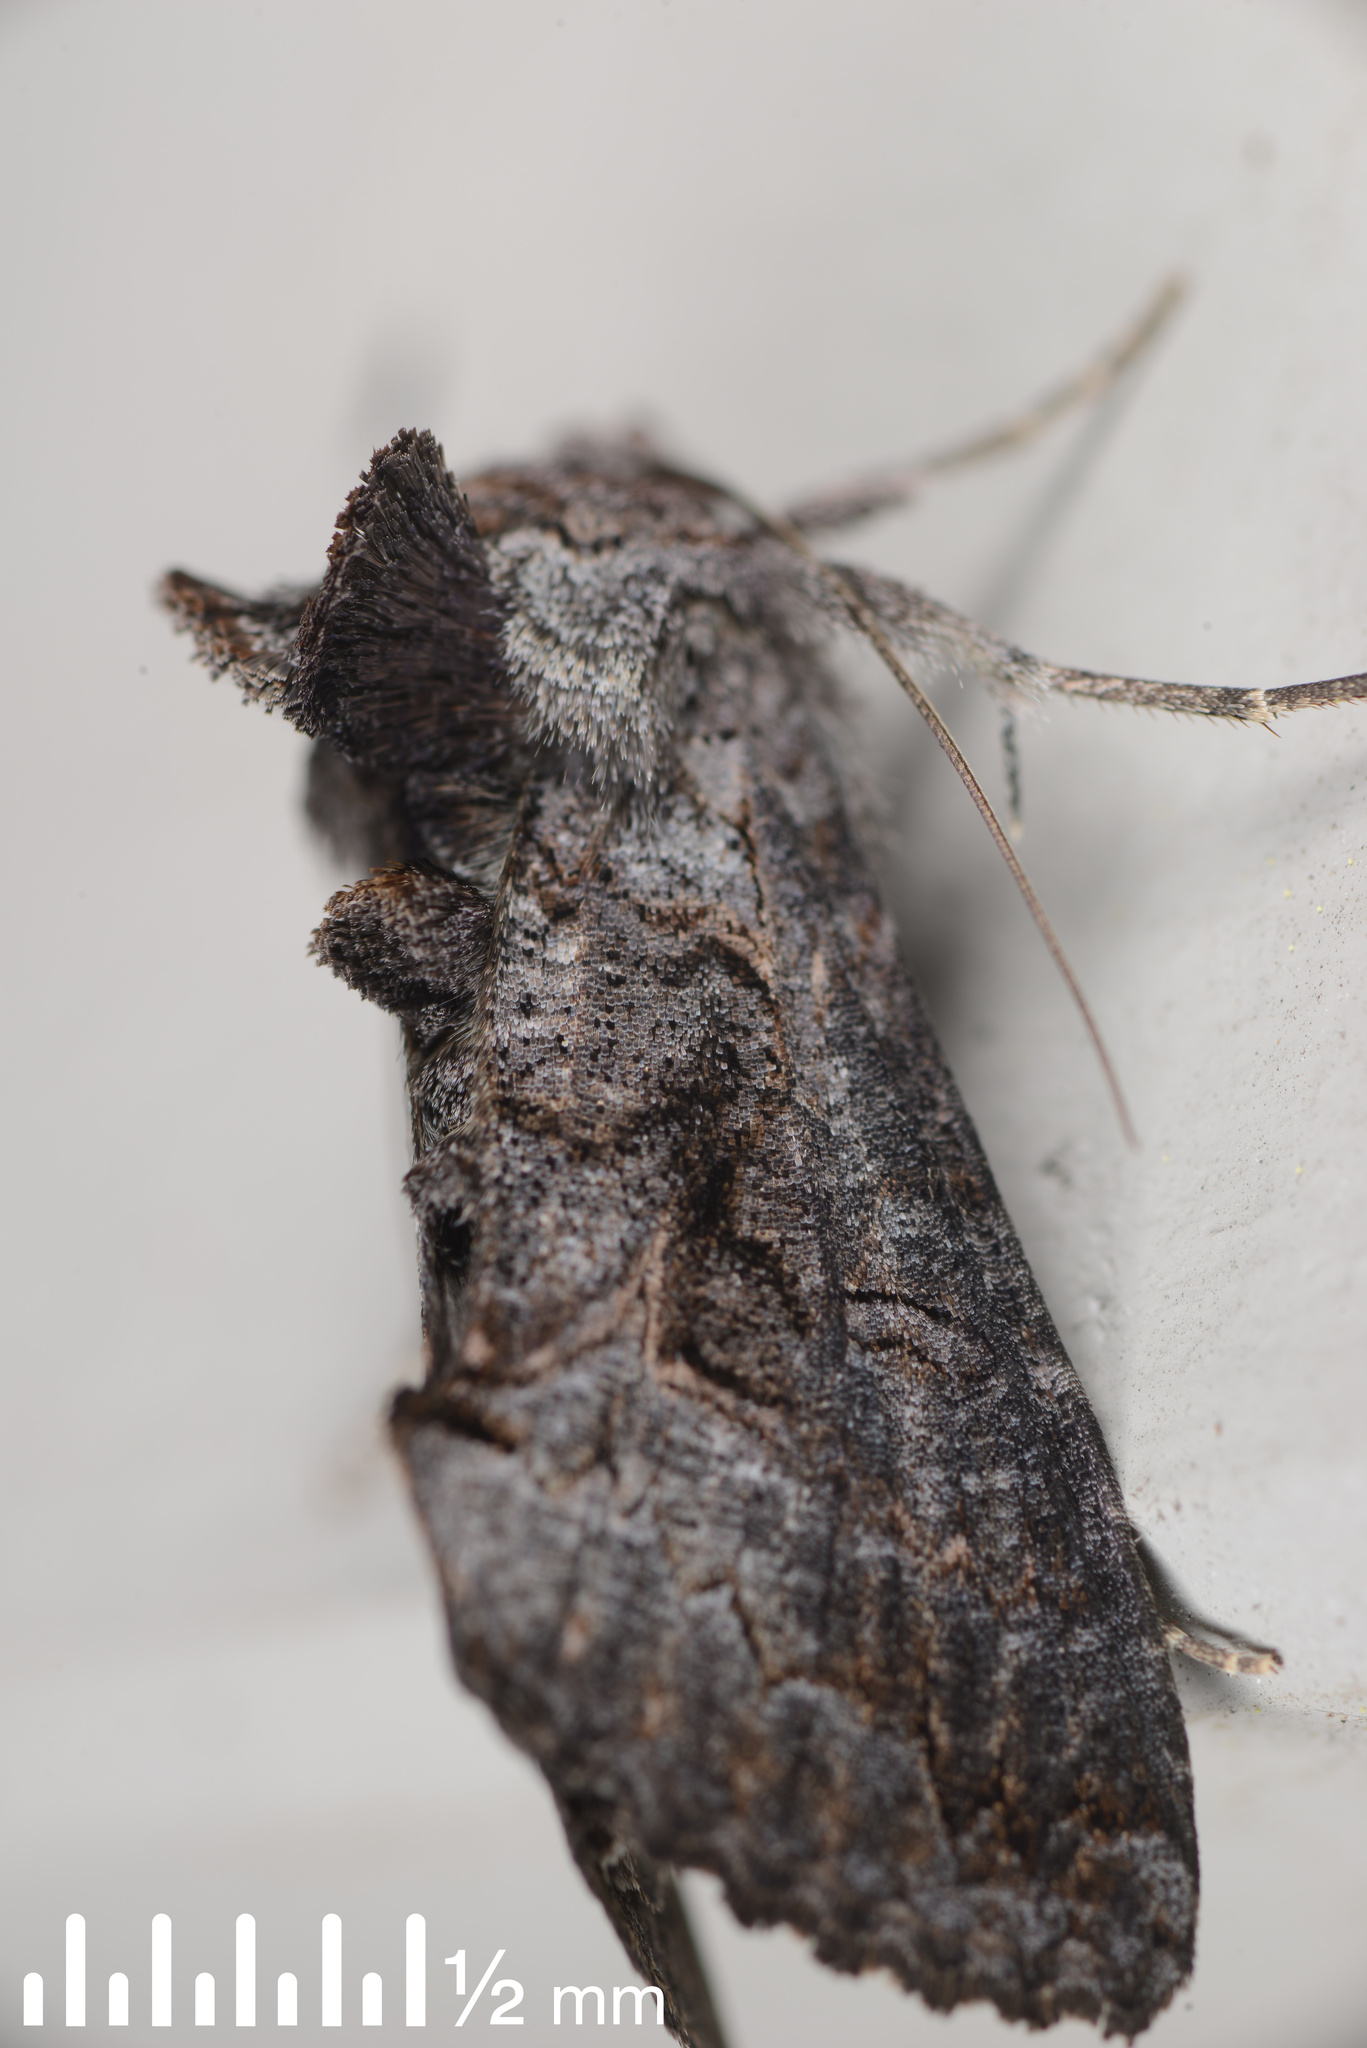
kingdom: Animalia
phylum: Arthropoda
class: Insecta
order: Lepidoptera
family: Noctuidae
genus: Ctenoplusia
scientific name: Ctenoplusia albostriata
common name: Moth
